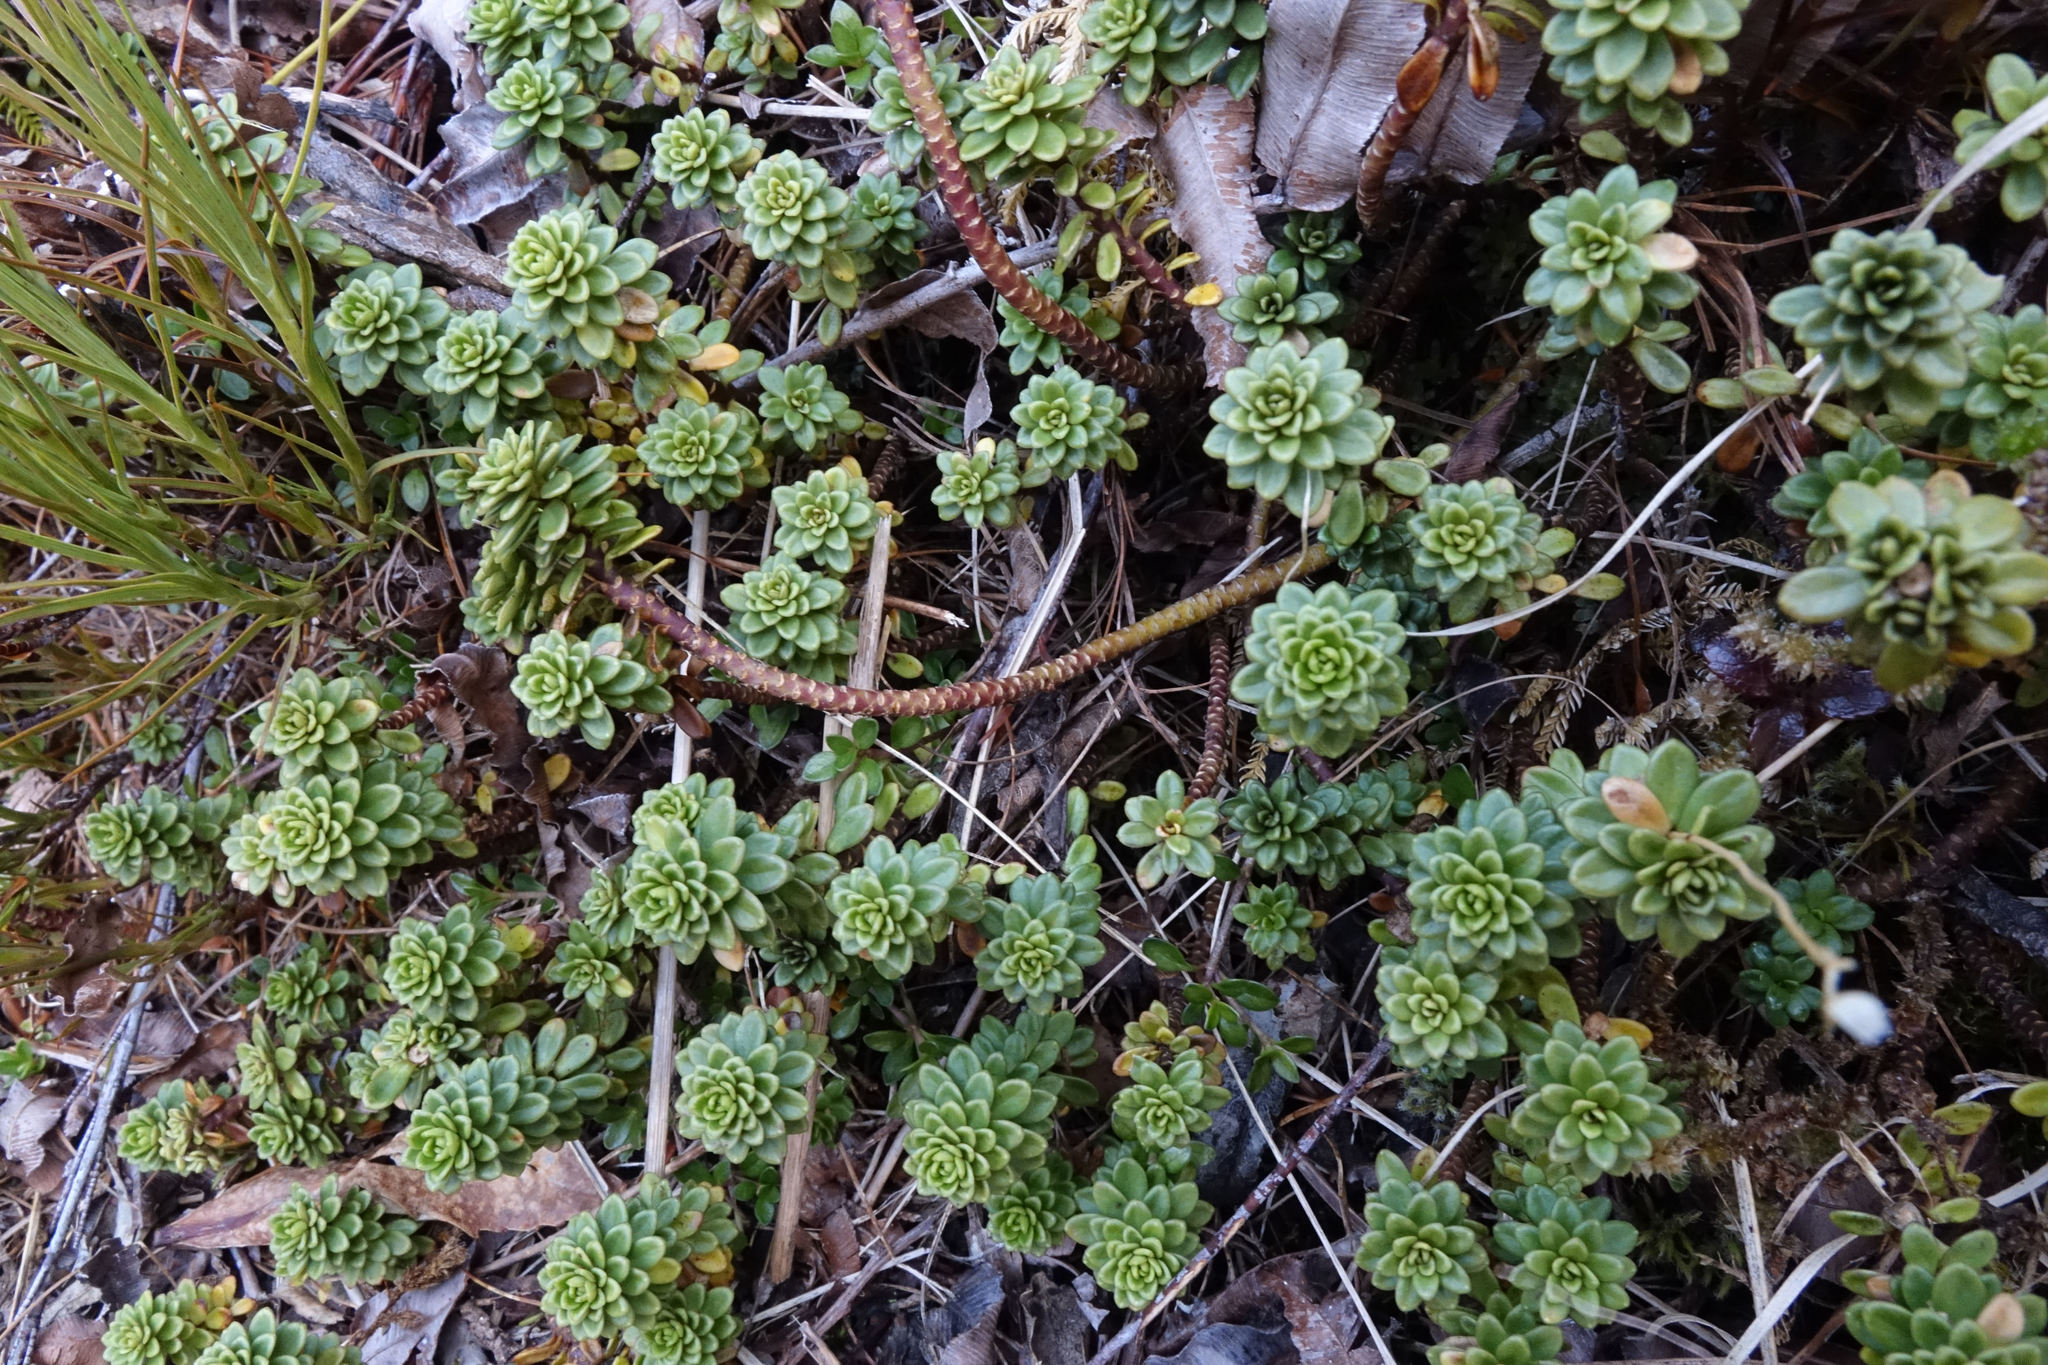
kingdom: Plantae
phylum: Tracheophyta
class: Magnoliopsida
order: Asterales
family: Stylidiaceae
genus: Forstera
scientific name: Forstera tenella
